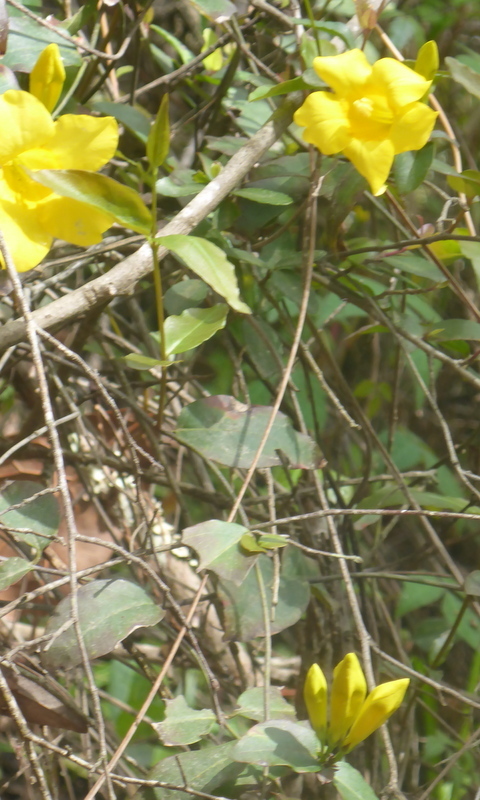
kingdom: Plantae
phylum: Tracheophyta
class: Magnoliopsida
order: Gentianales
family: Gelsemiaceae
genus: Gelsemium
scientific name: Gelsemium rankinii
